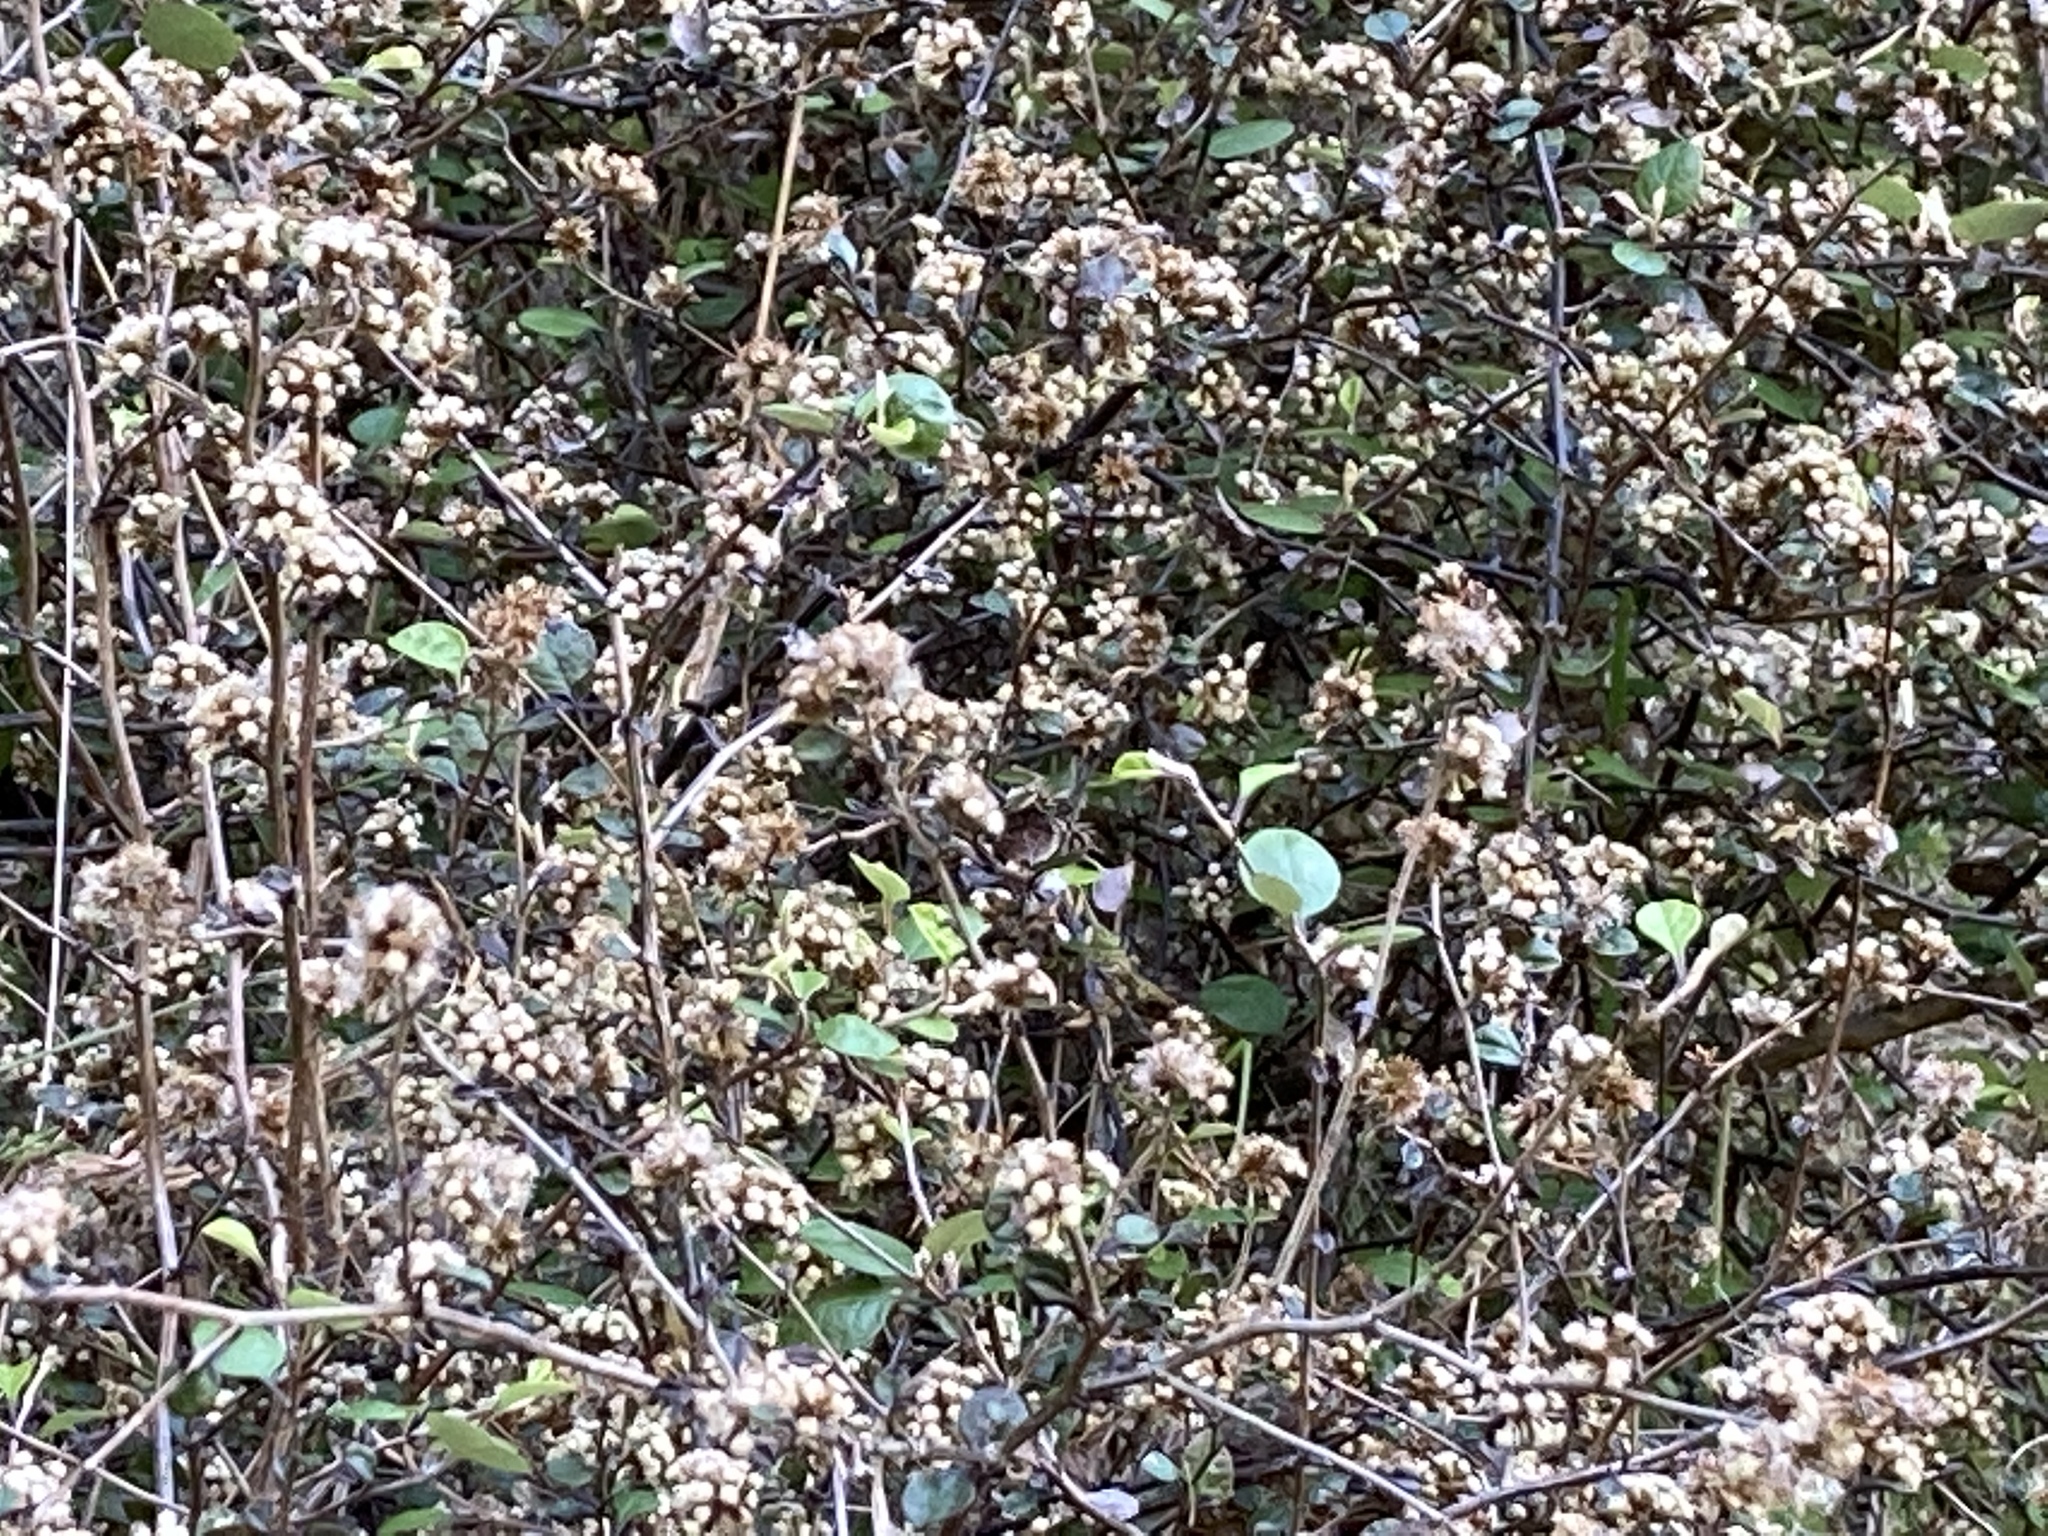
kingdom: Plantae
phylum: Tracheophyta
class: Magnoliopsida
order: Asterales
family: Asteraceae
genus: Ozothamnus
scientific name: Ozothamnus glomeratus
